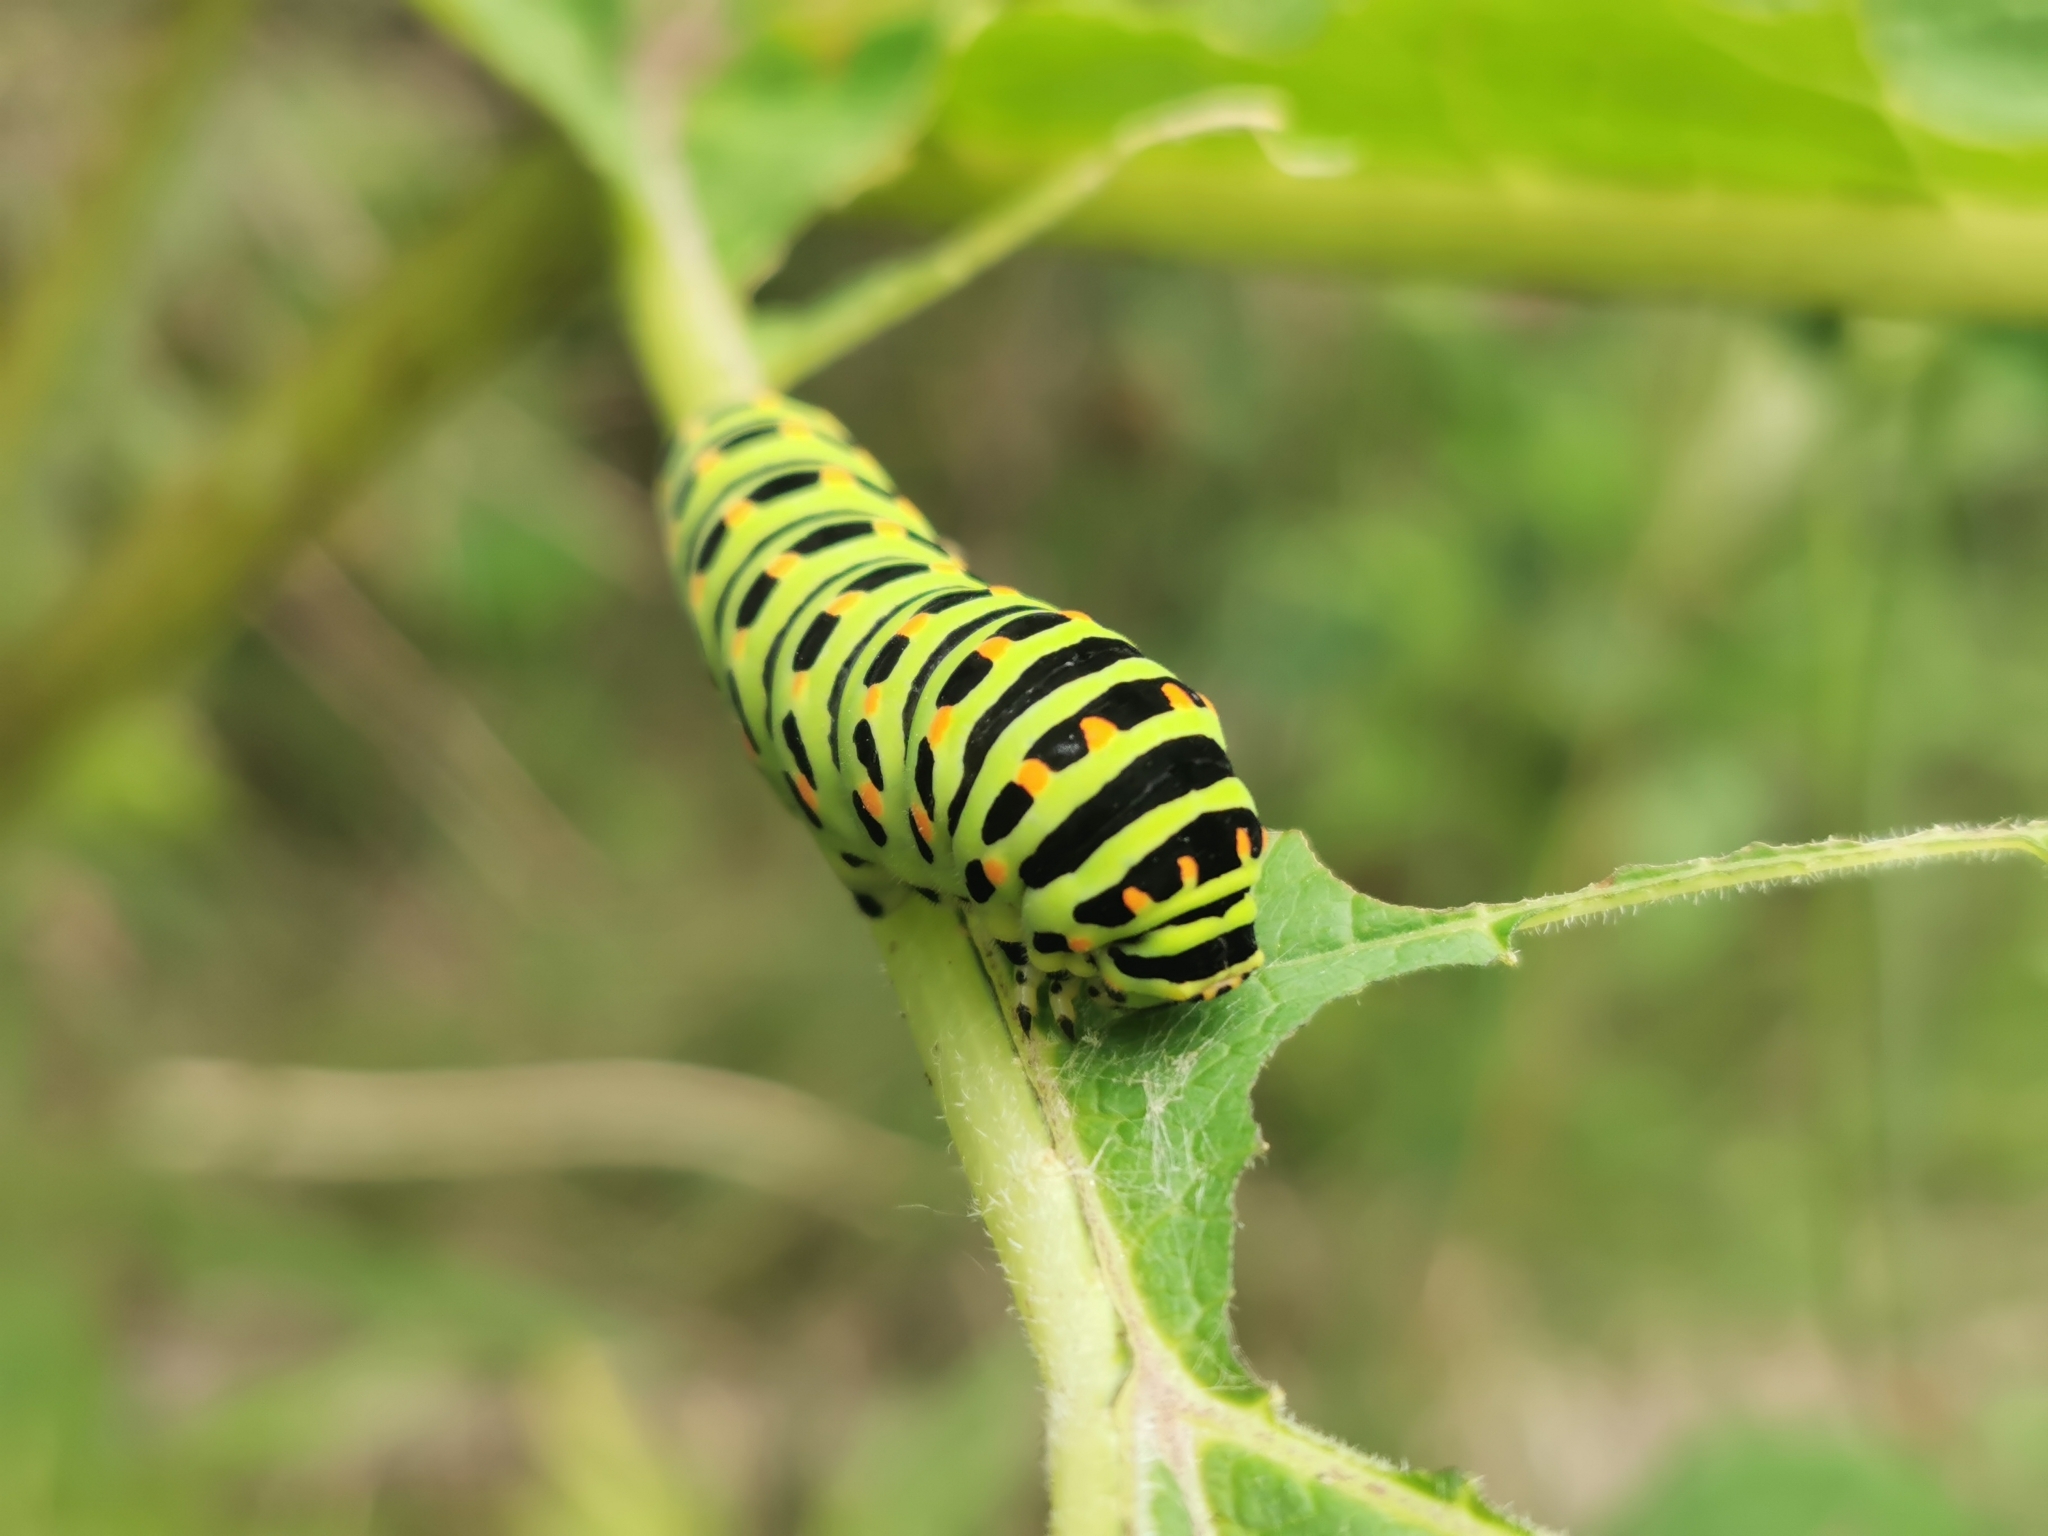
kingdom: Animalia
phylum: Arthropoda
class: Insecta
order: Lepidoptera
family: Papilionidae
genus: Papilio
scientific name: Papilio machaon
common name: Swallowtail
